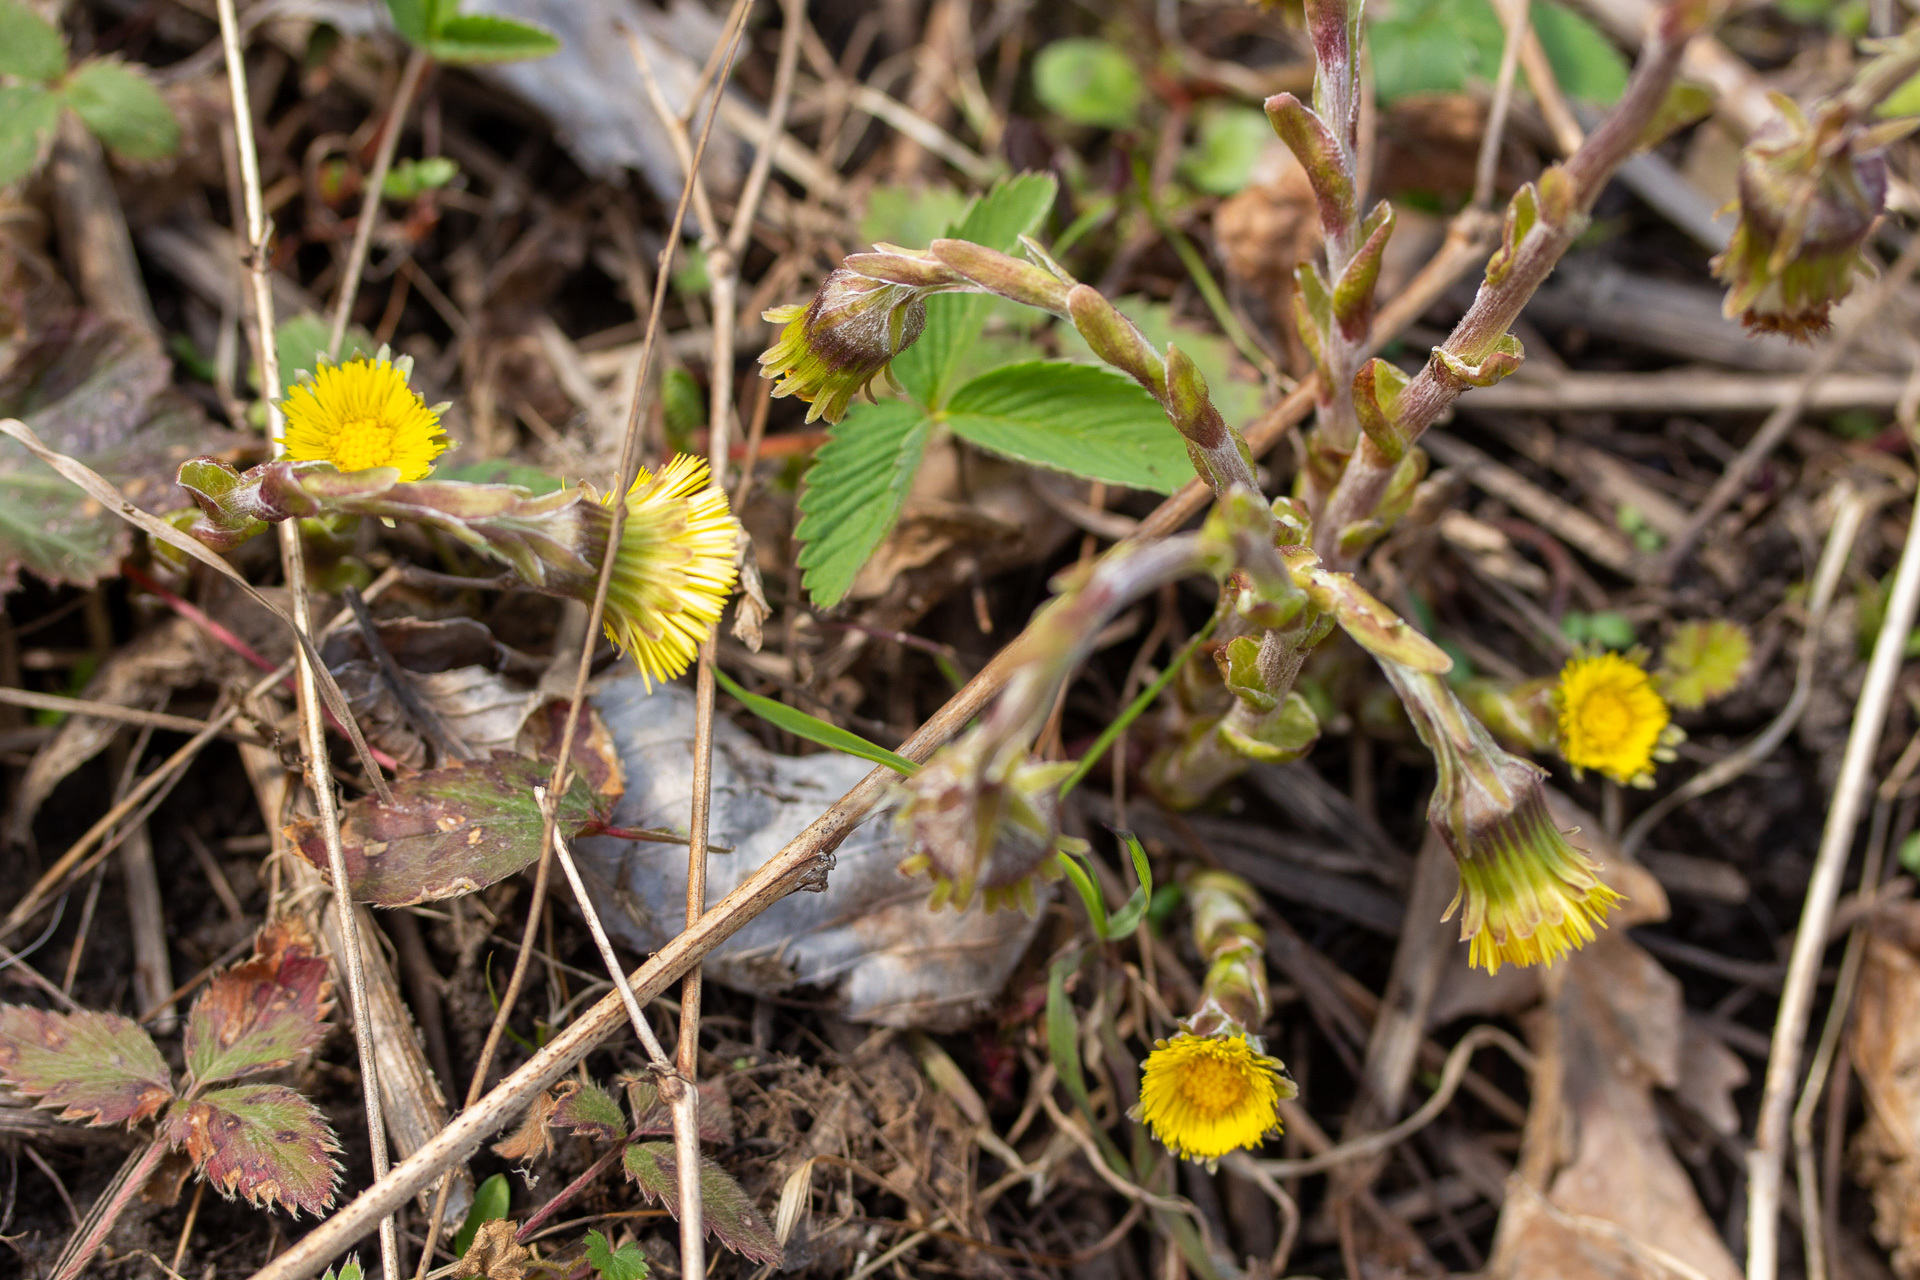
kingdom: Plantae
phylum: Tracheophyta
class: Magnoliopsida
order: Asterales
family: Asteraceae
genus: Tussilago
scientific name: Tussilago farfara
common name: Coltsfoot
